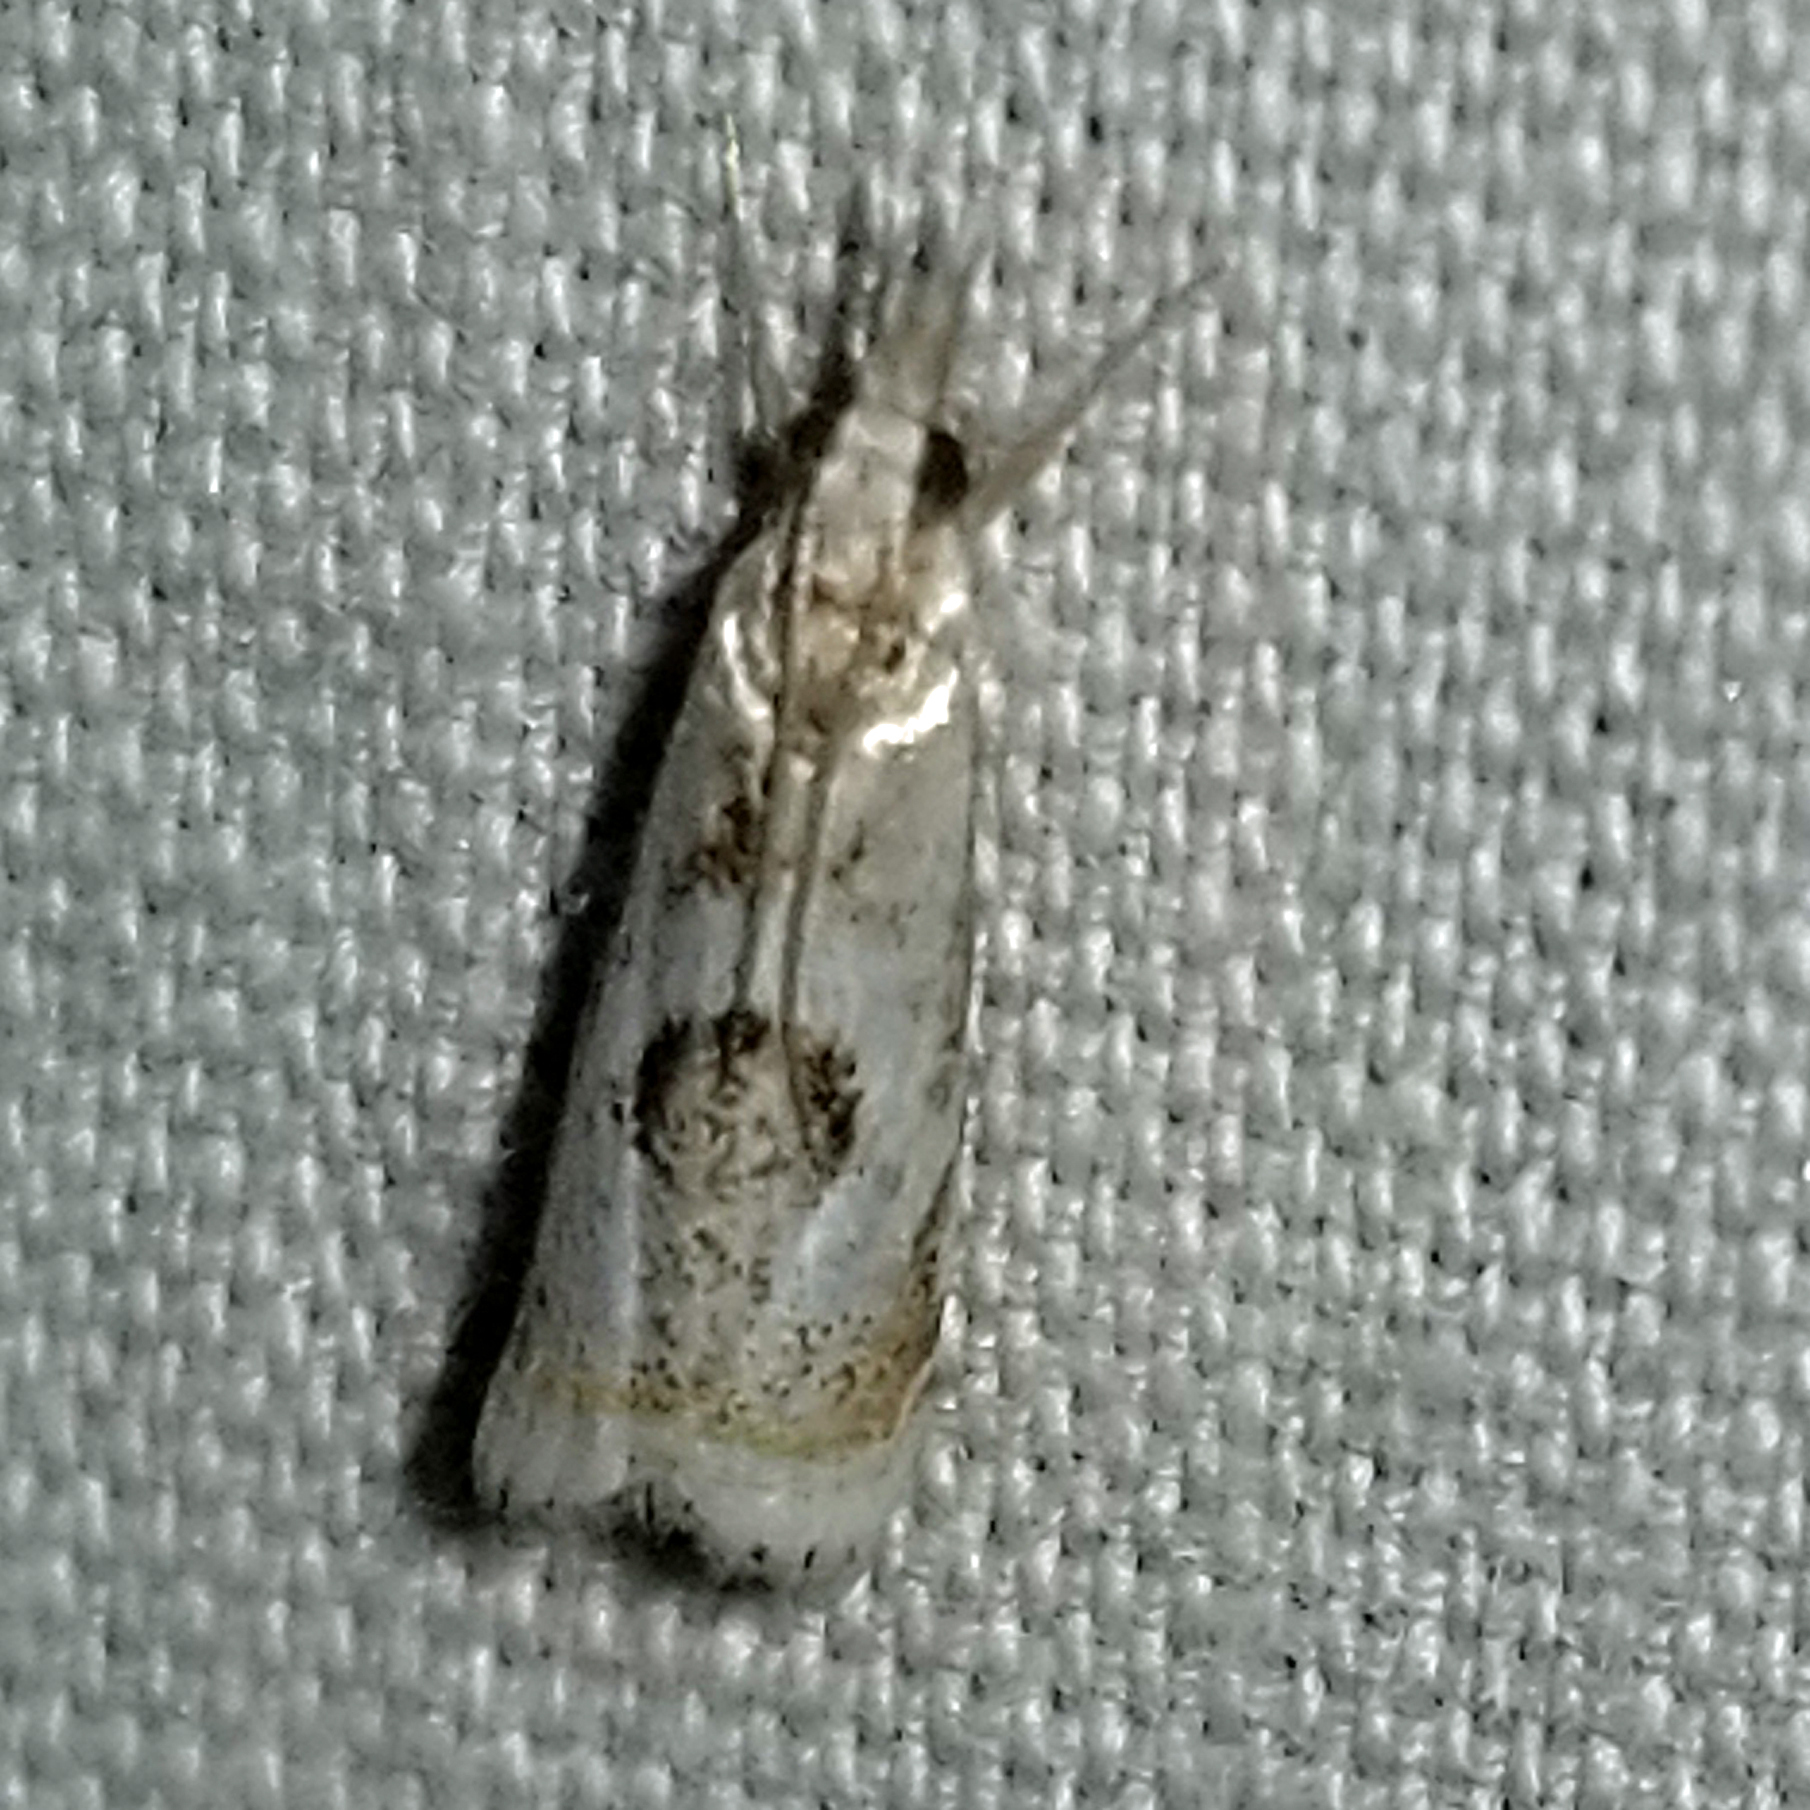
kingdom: Animalia
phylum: Arthropoda
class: Insecta
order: Lepidoptera
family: Crambidae
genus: Microcrambus
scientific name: Microcrambus elegans
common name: Elegant grass-veneer
